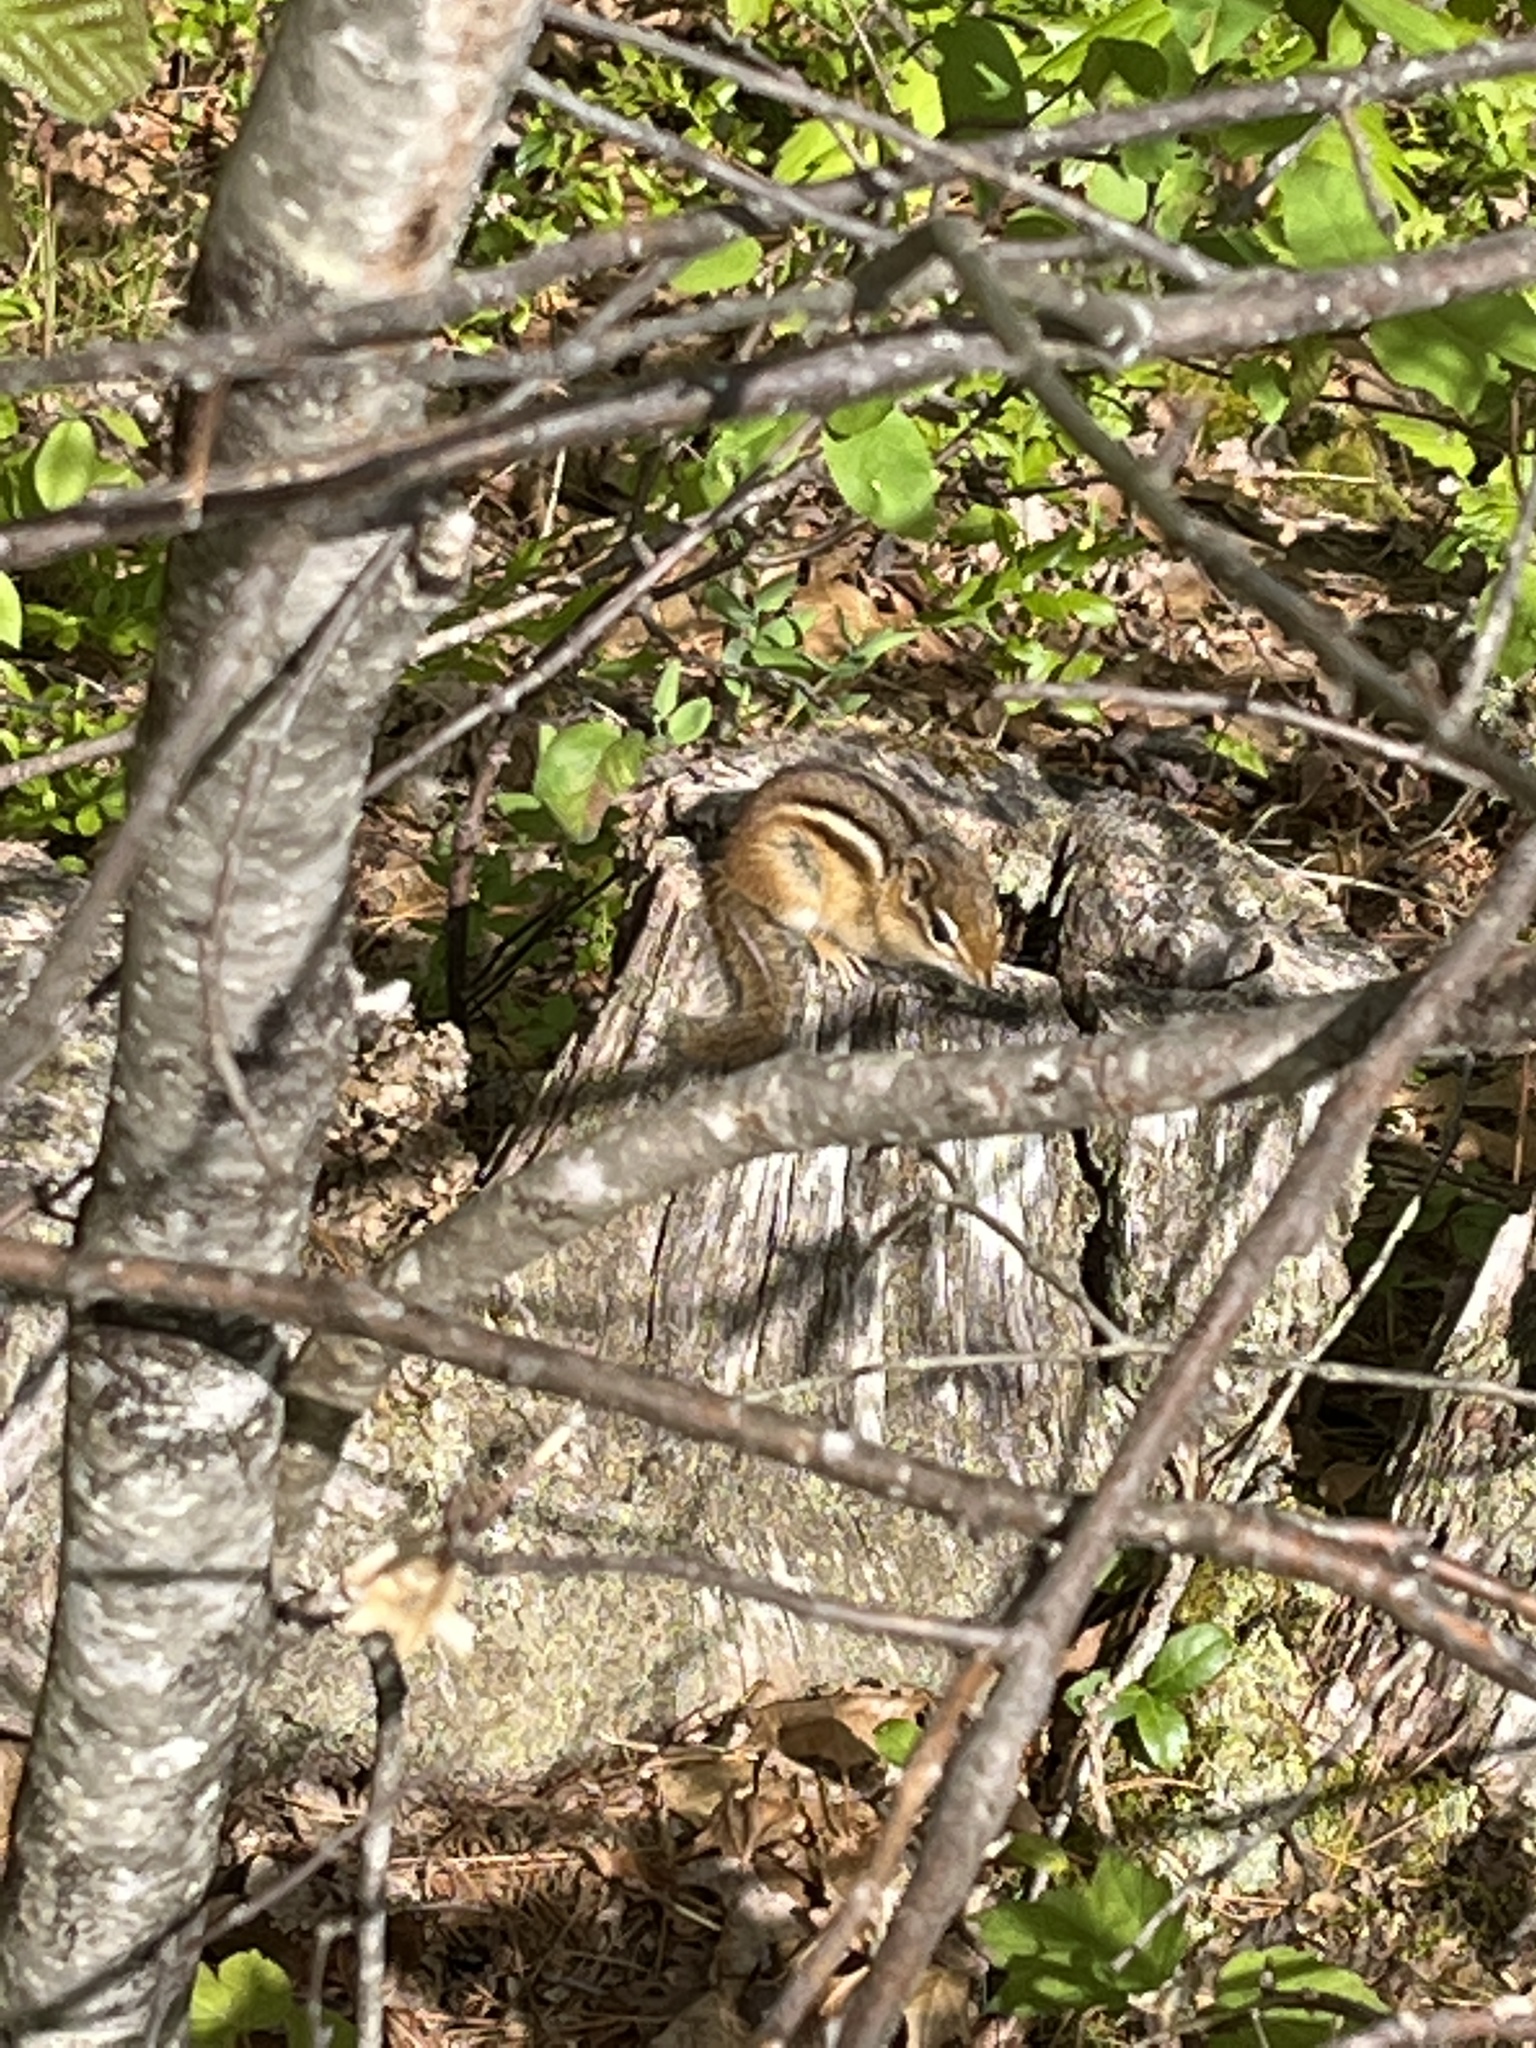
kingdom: Animalia
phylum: Chordata
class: Mammalia
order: Rodentia
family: Sciuridae
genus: Tamias
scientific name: Tamias striatus
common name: Eastern chipmunk
